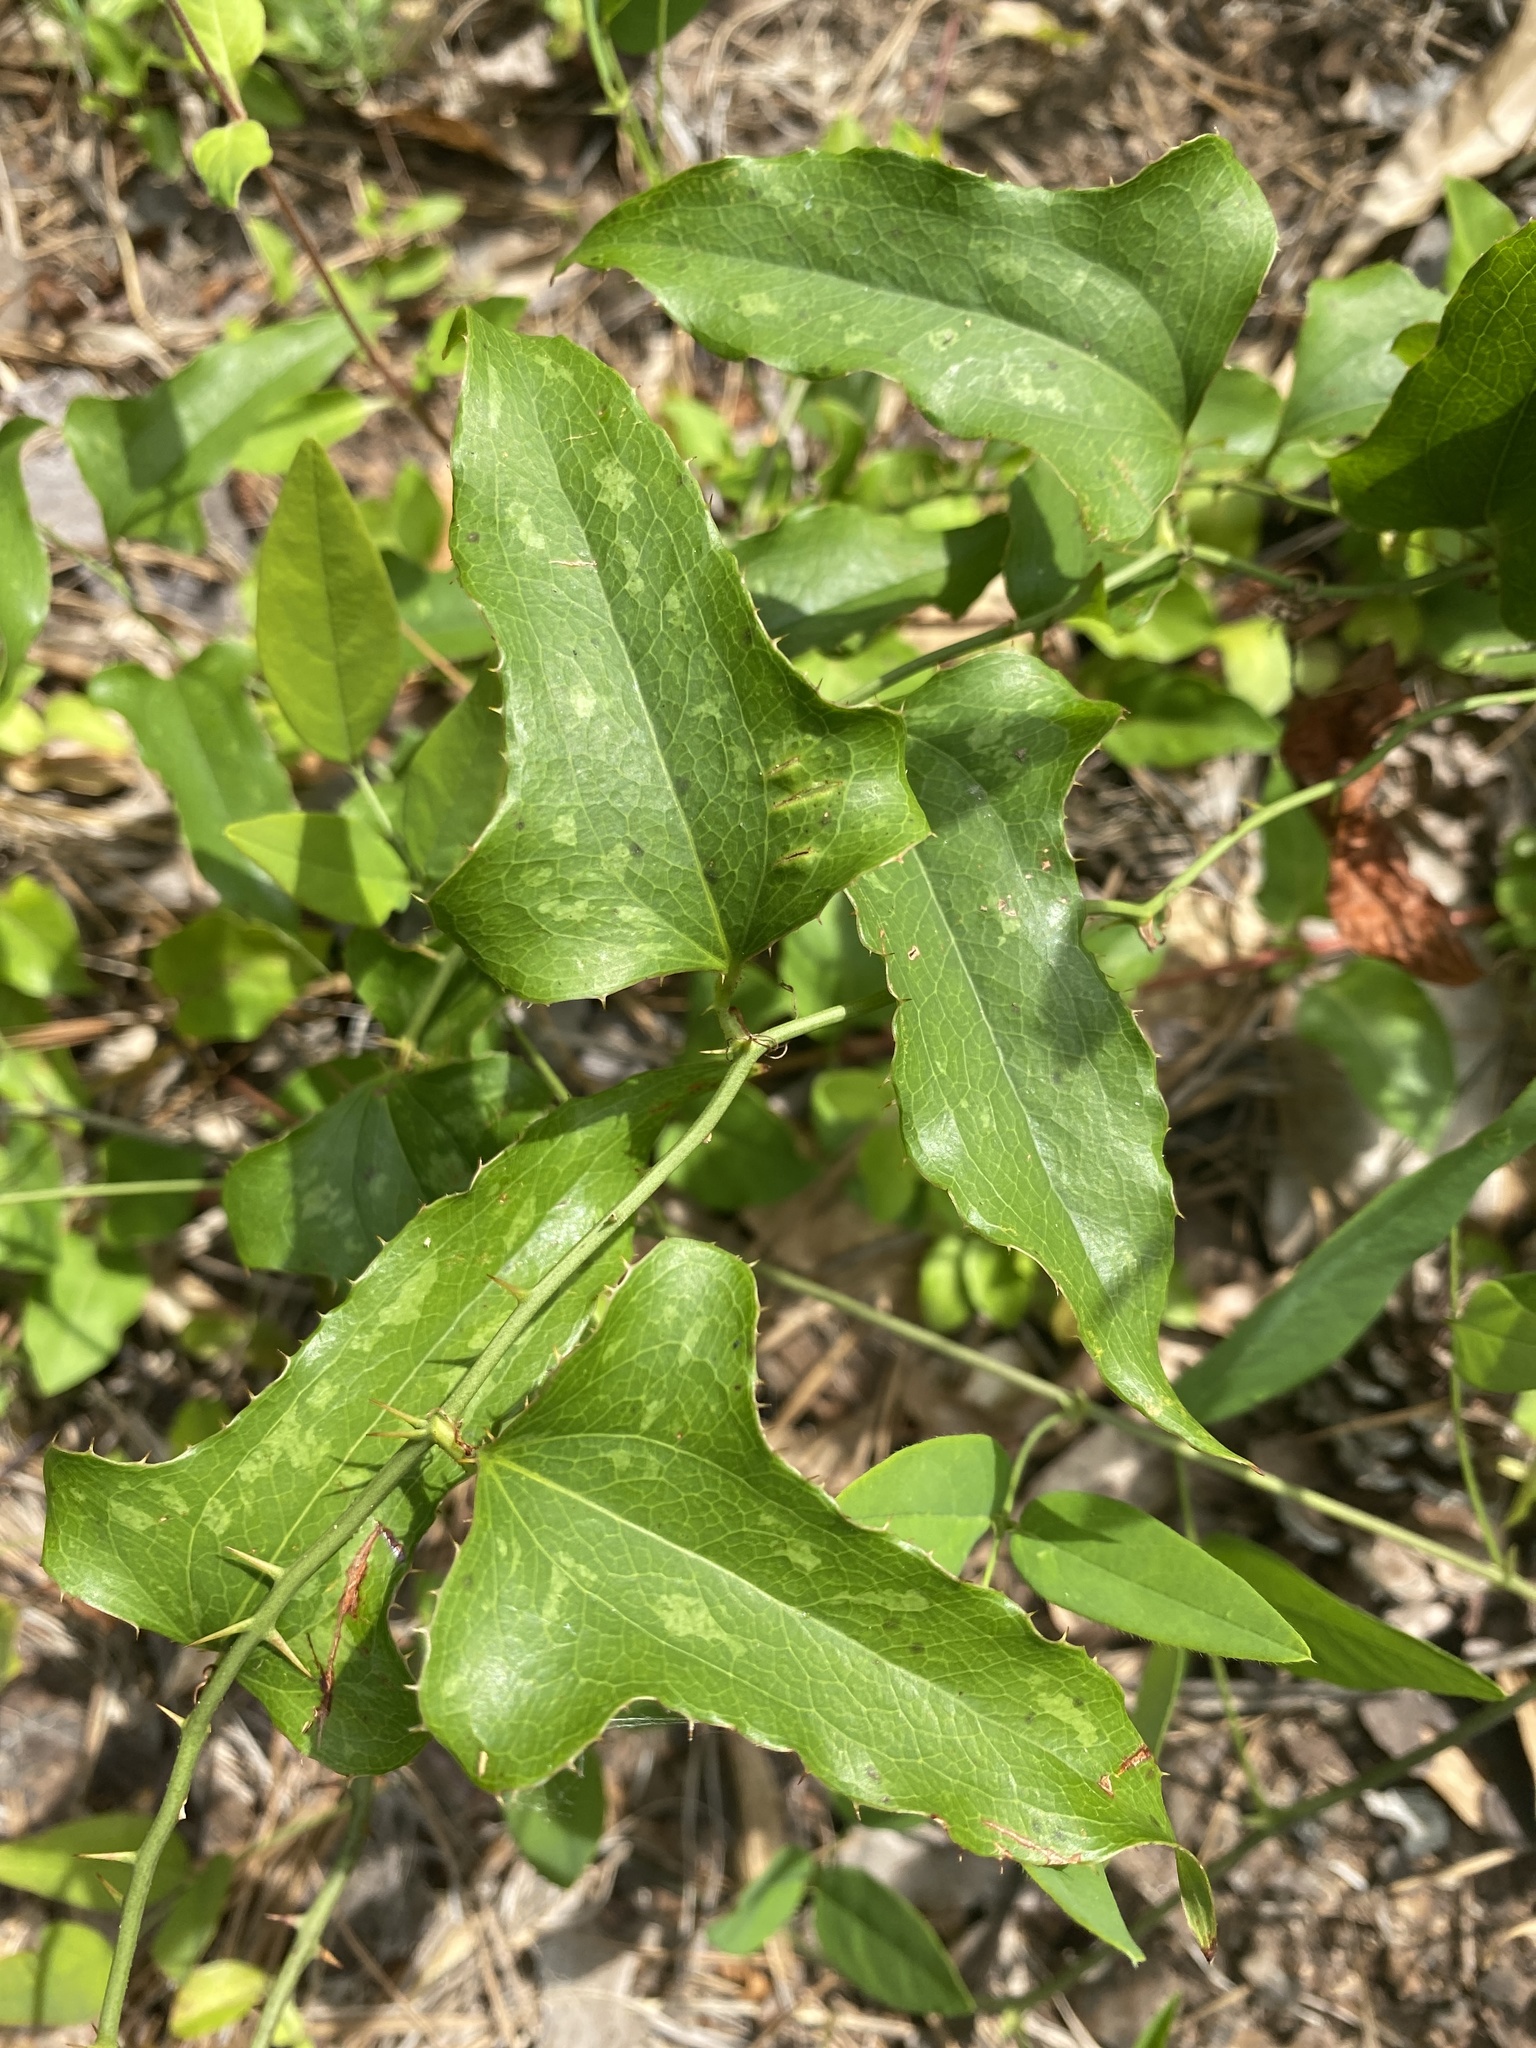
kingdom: Plantae
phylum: Tracheophyta
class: Liliopsida
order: Liliales
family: Smilacaceae
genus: Smilax
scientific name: Smilax bona-nox
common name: Catbrier
